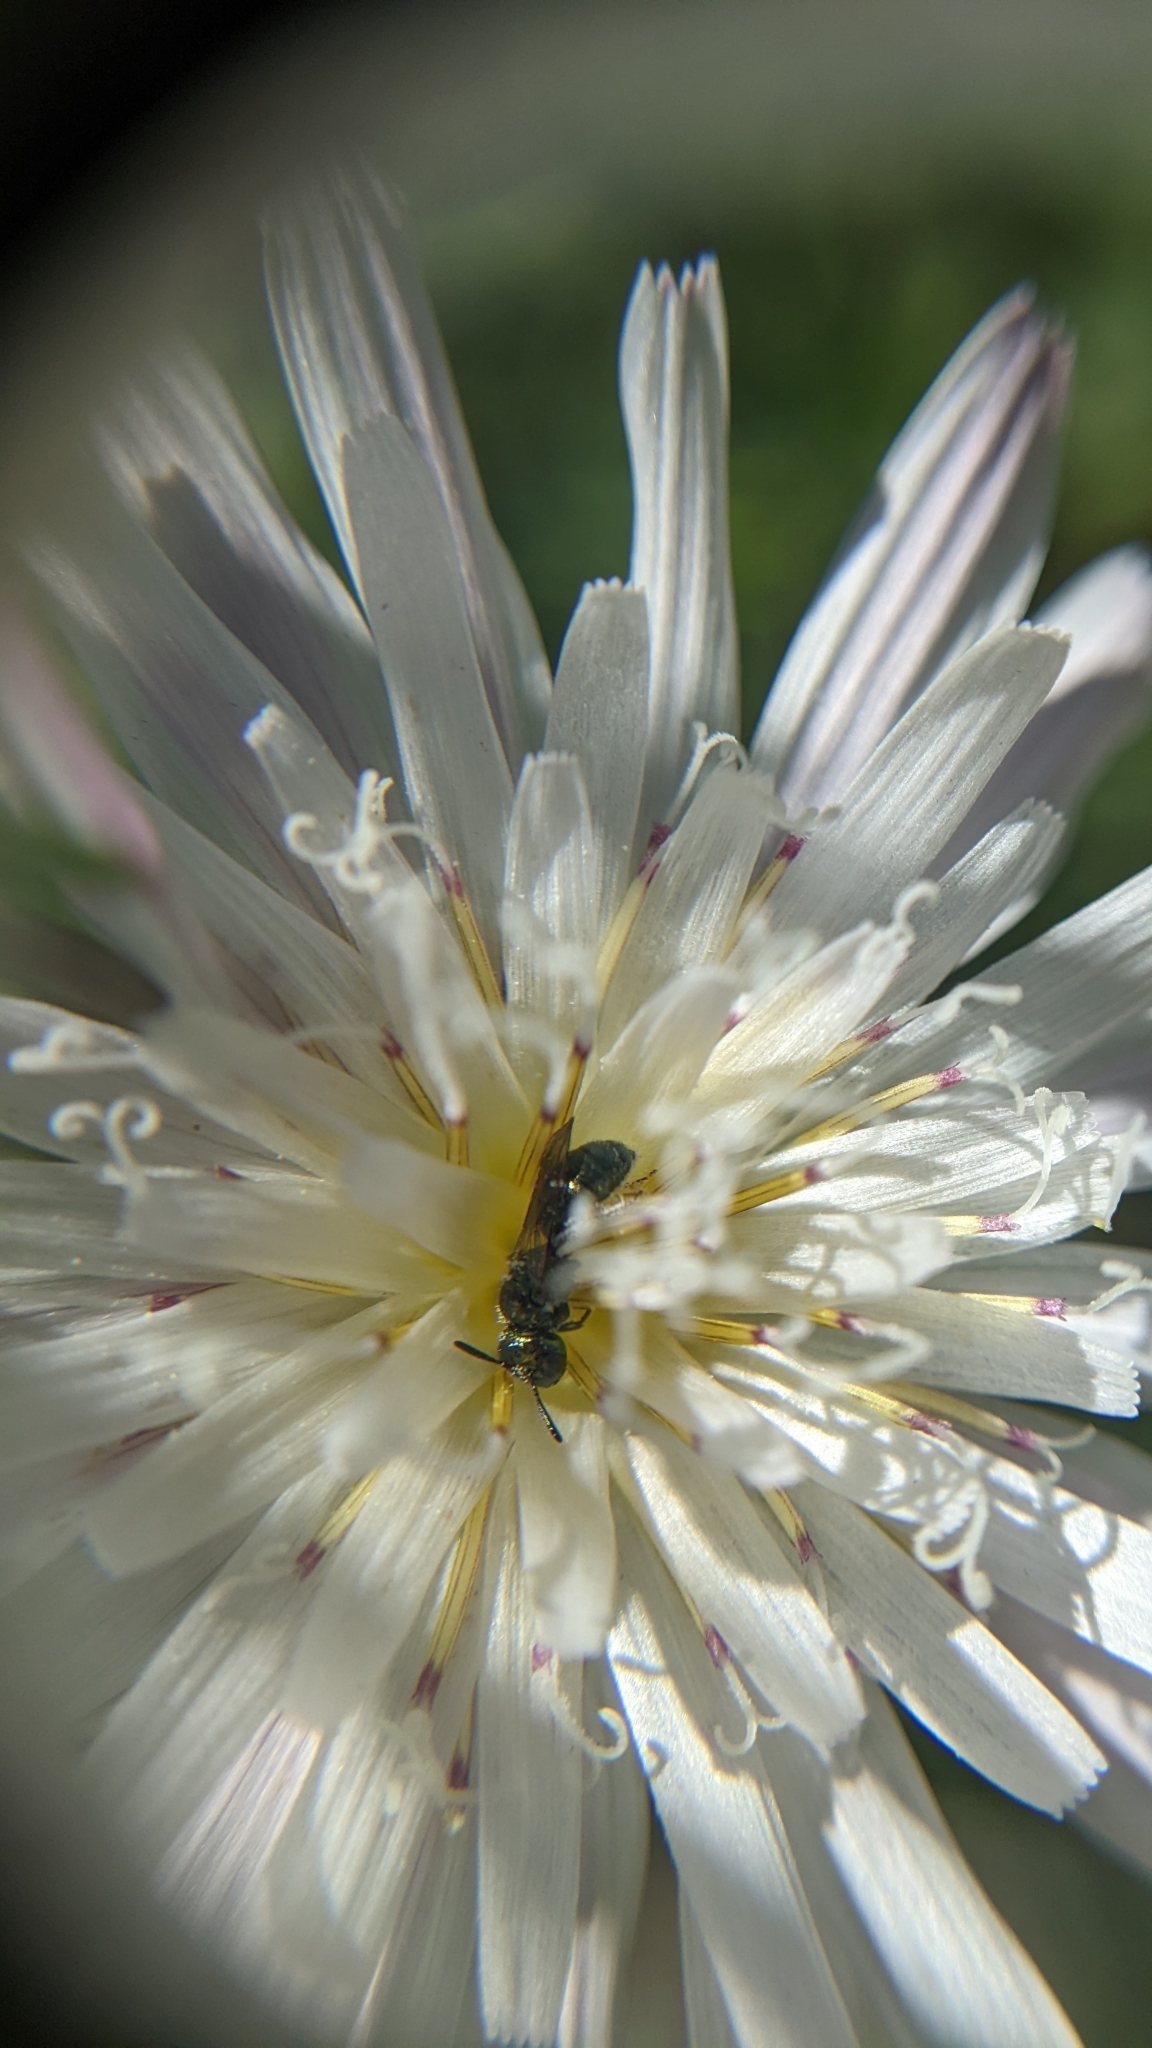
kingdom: Animalia
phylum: Arthropoda
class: Insecta
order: Hymenoptera
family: Apidae
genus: Zadontomerus
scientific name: Zadontomerus
